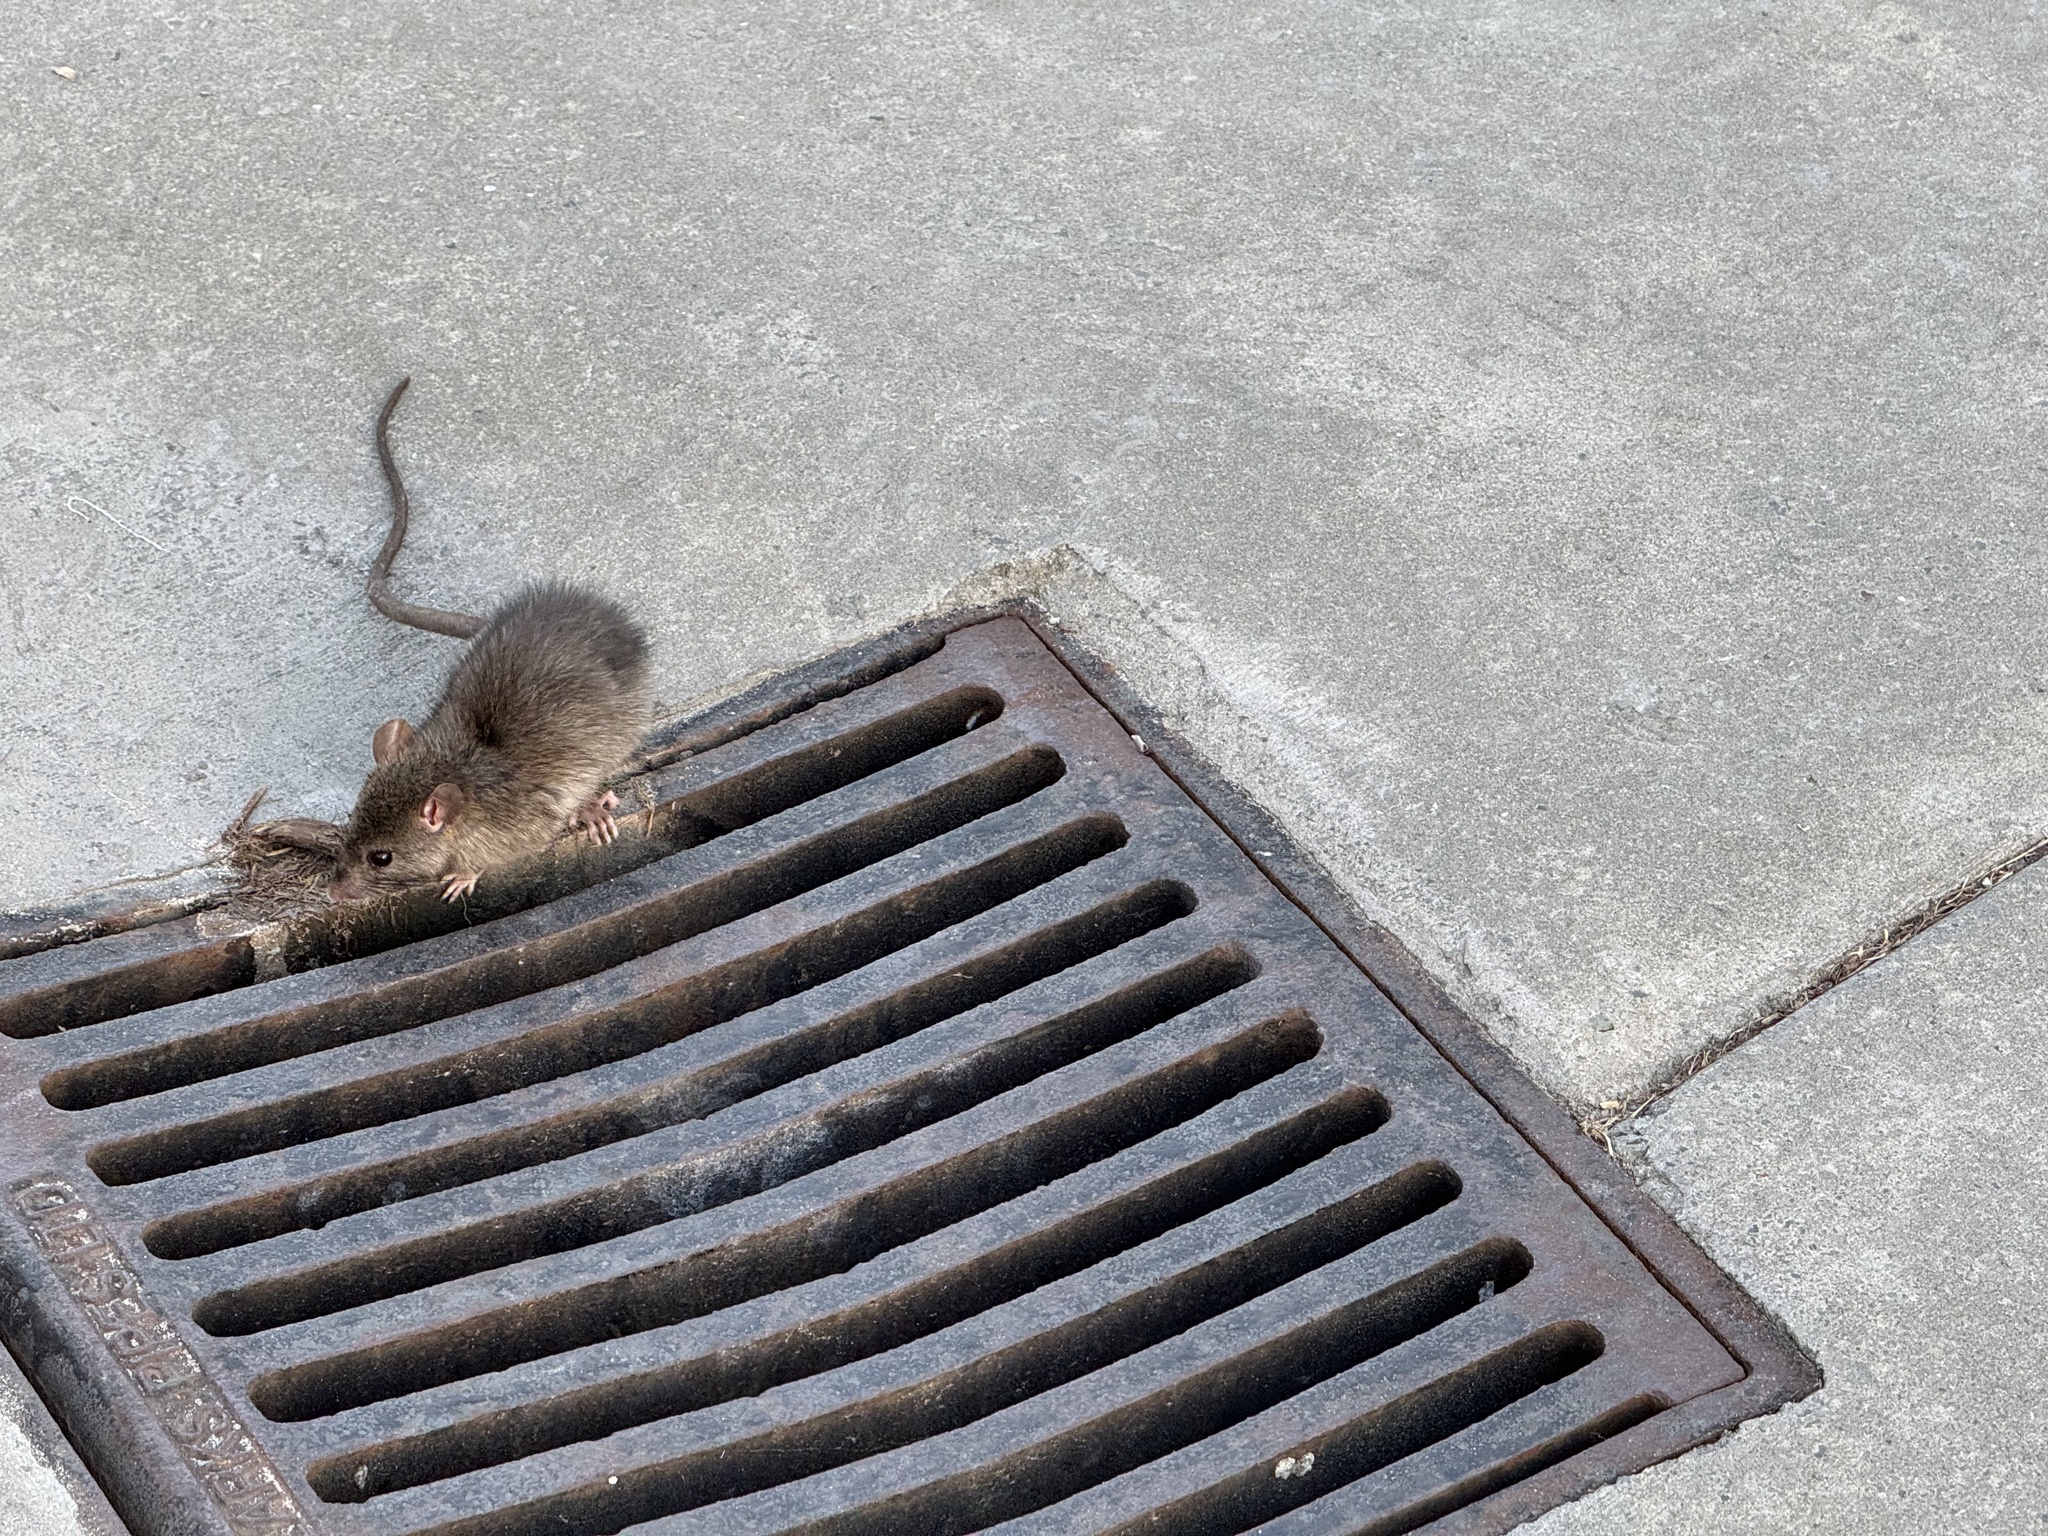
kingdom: Animalia
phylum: Chordata
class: Mammalia
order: Rodentia
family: Muridae
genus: Rattus
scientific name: Rattus rattus
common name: Black rat
